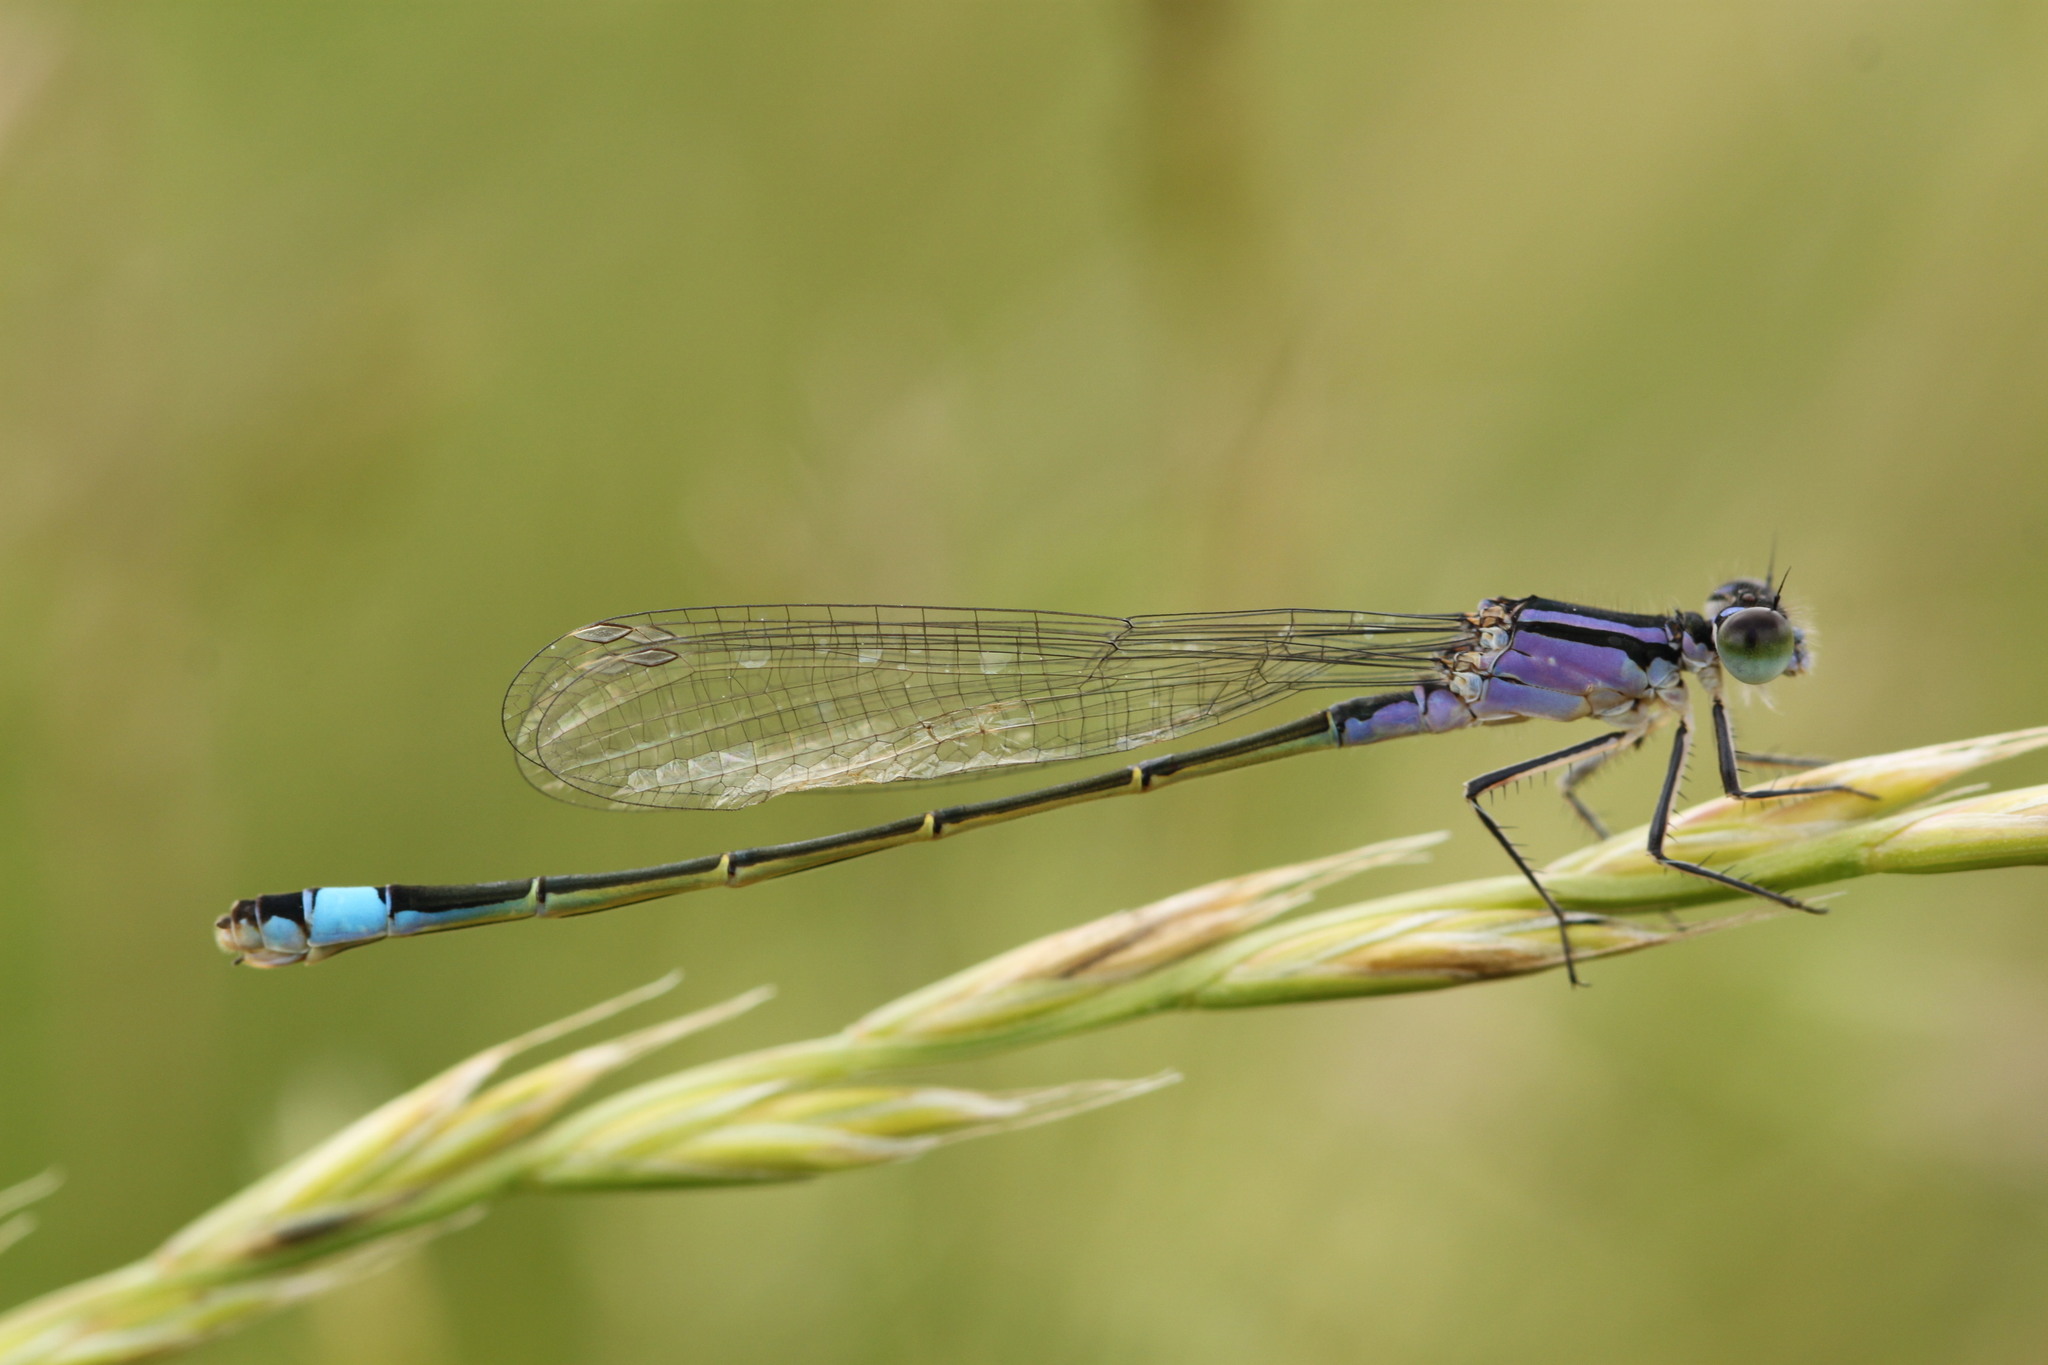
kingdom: Animalia
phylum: Arthropoda
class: Insecta
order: Odonata
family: Coenagrionidae
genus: Ischnura
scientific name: Ischnura elegans
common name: Blue-tailed damselfly
